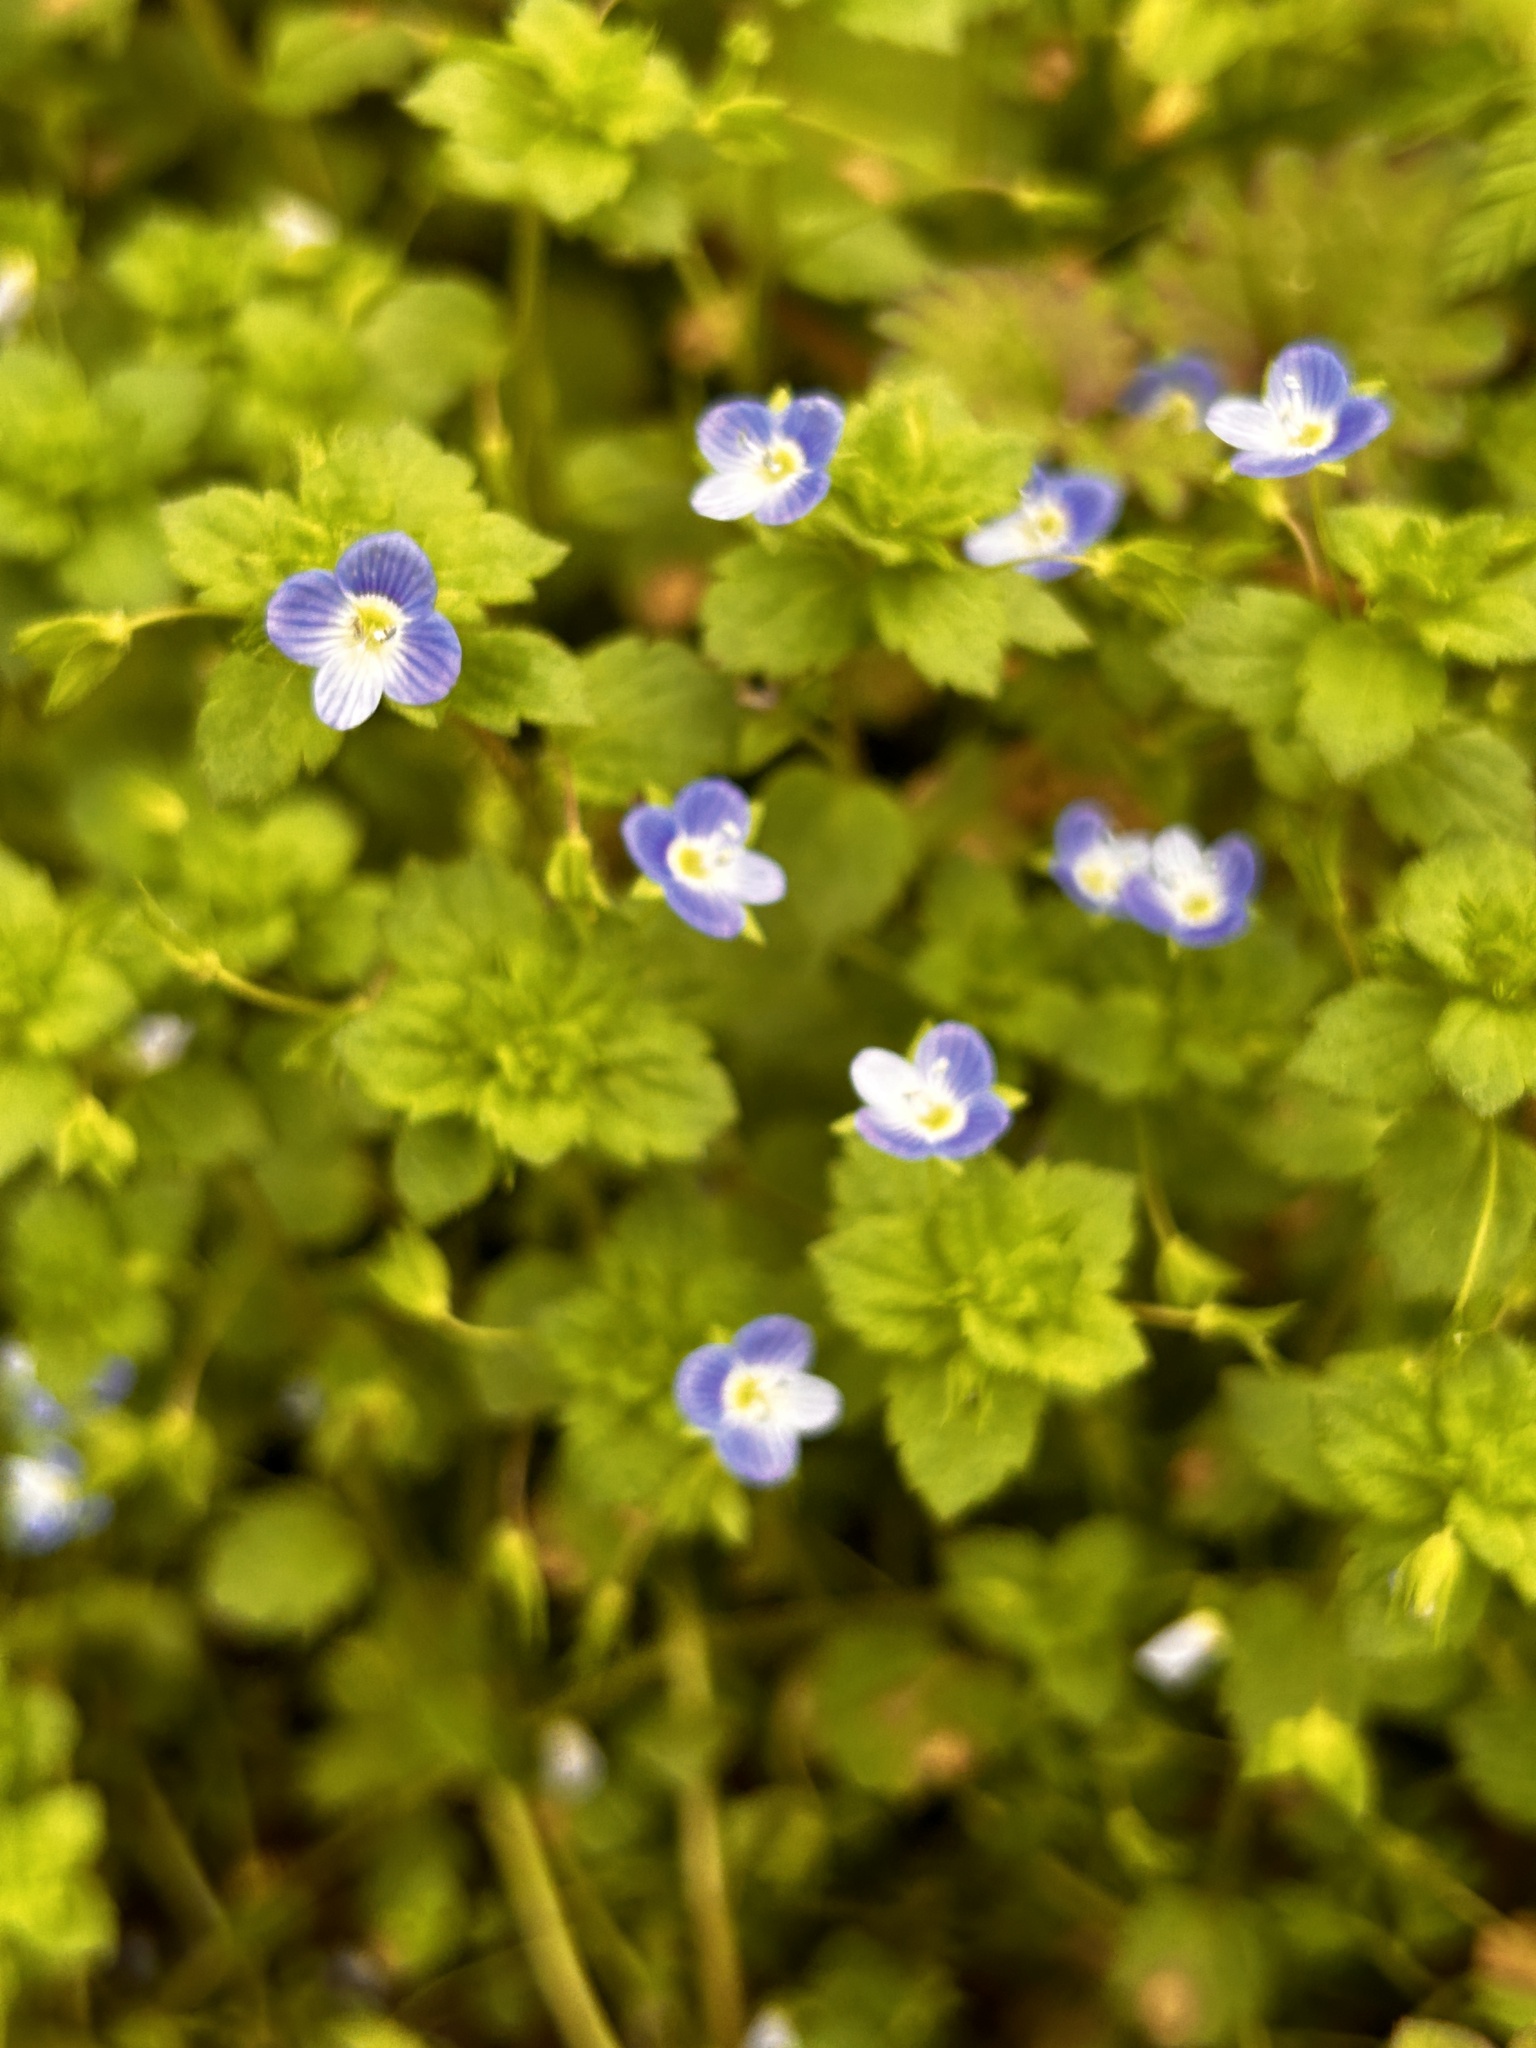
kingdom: Plantae
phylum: Tracheophyta
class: Magnoliopsida
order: Lamiales
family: Plantaginaceae
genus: Veronica
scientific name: Veronica persica
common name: Common field-speedwell
